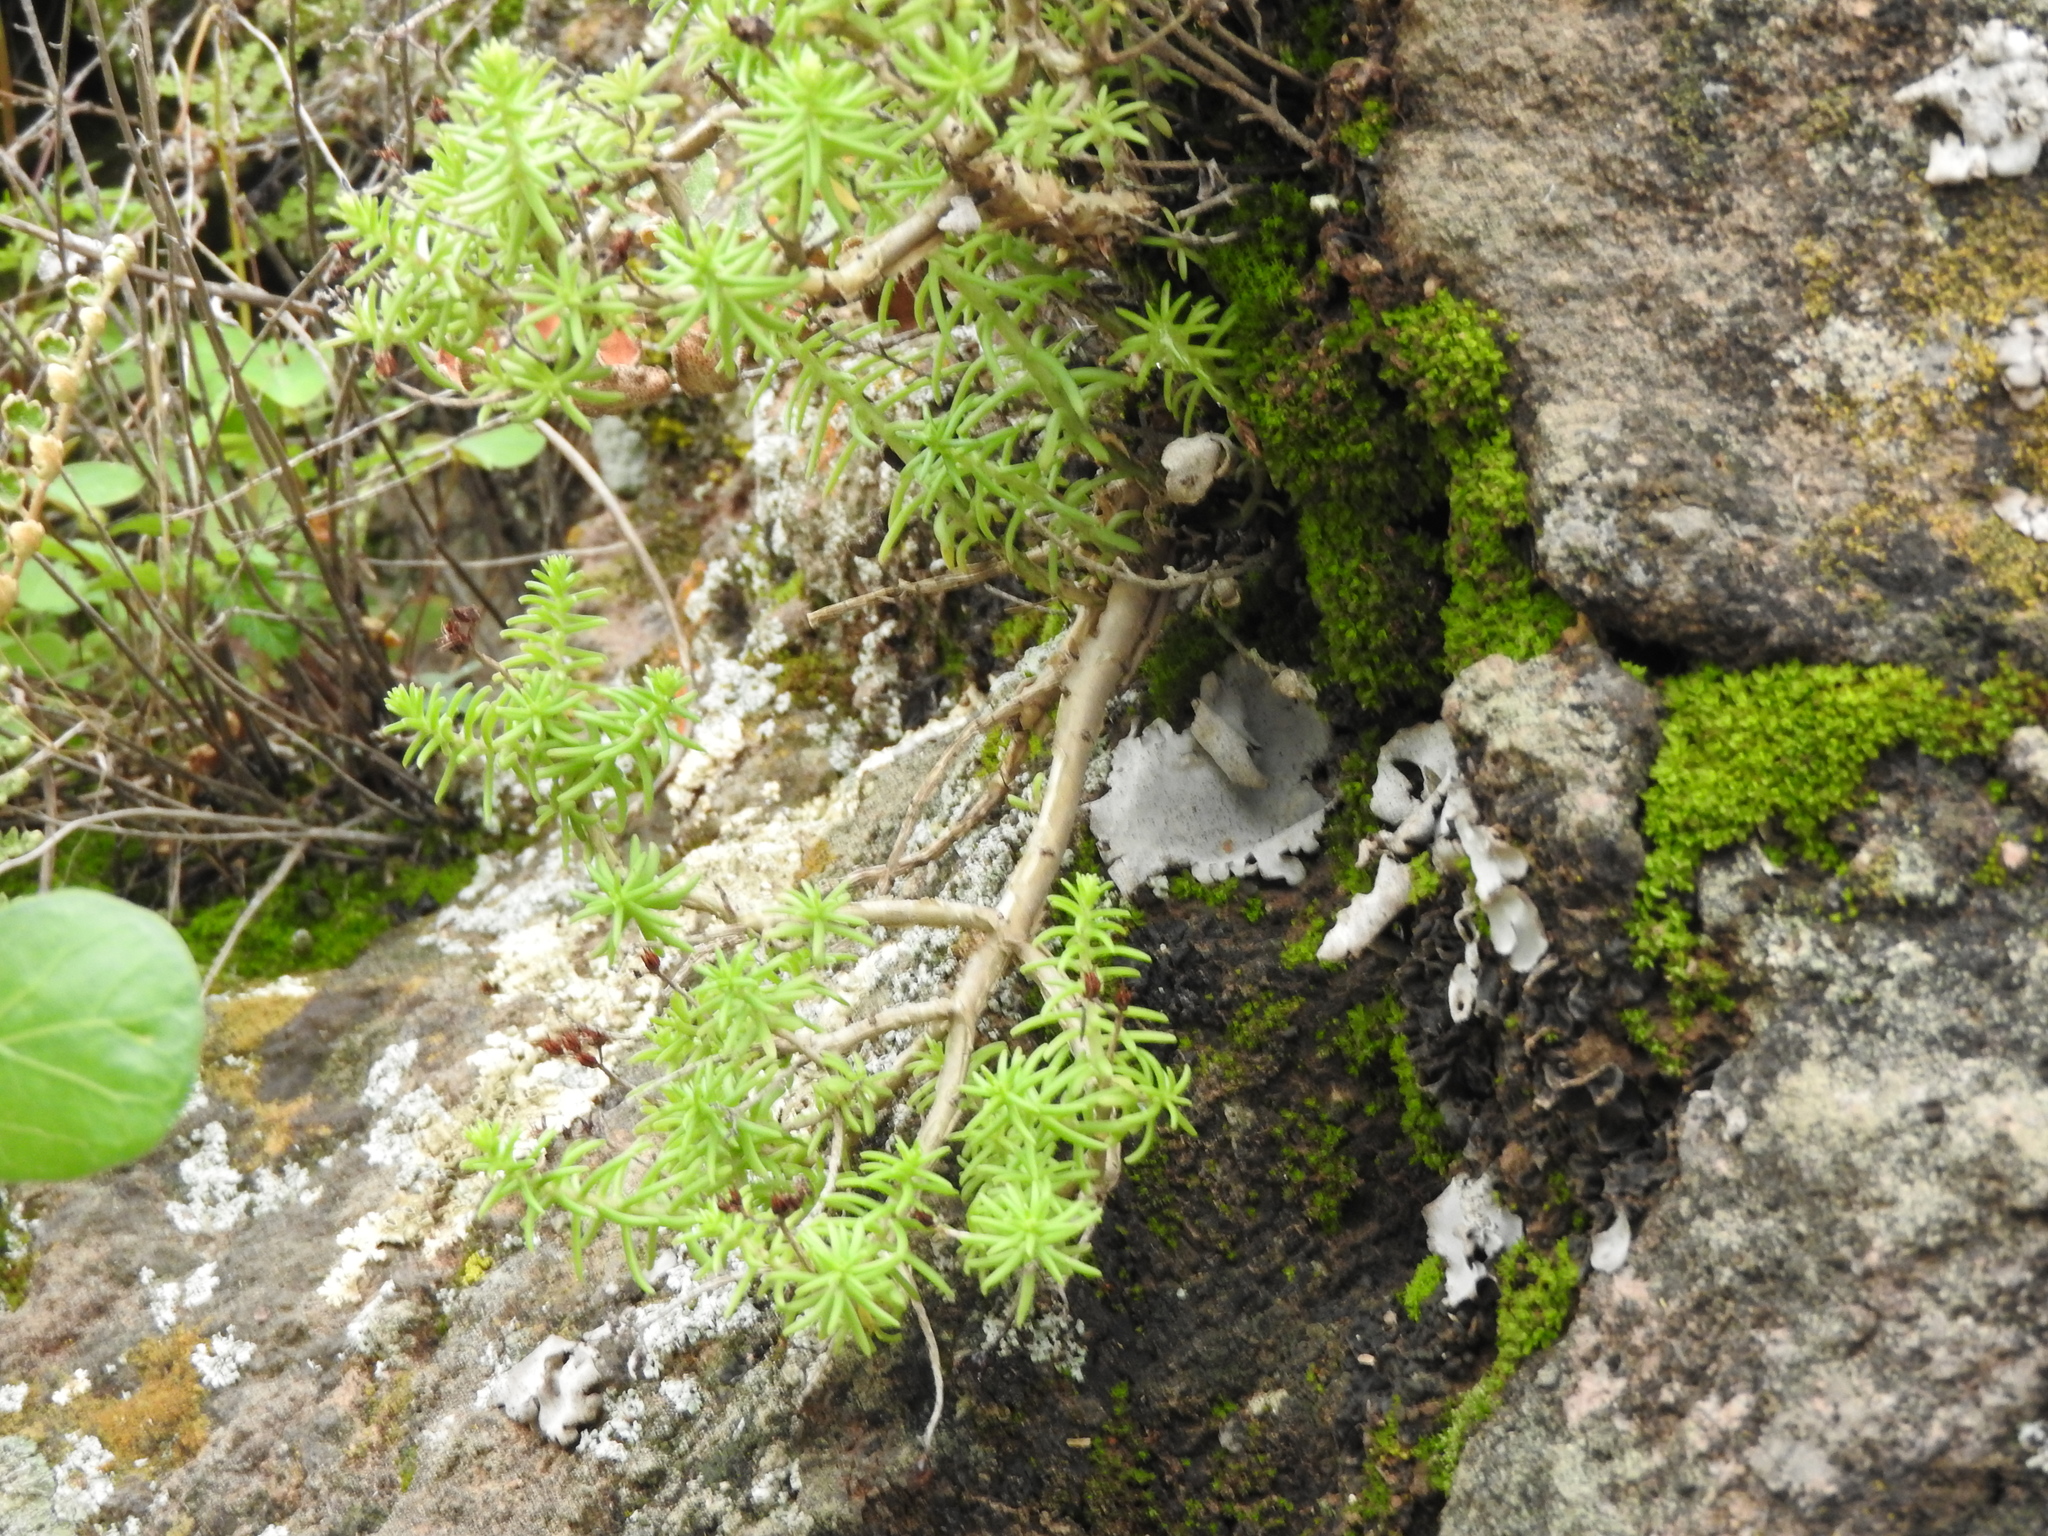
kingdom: Plantae
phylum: Tracheophyta
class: Magnoliopsida
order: Saxifragales
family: Crassulaceae
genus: Sedum
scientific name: Sedum bourgaei
